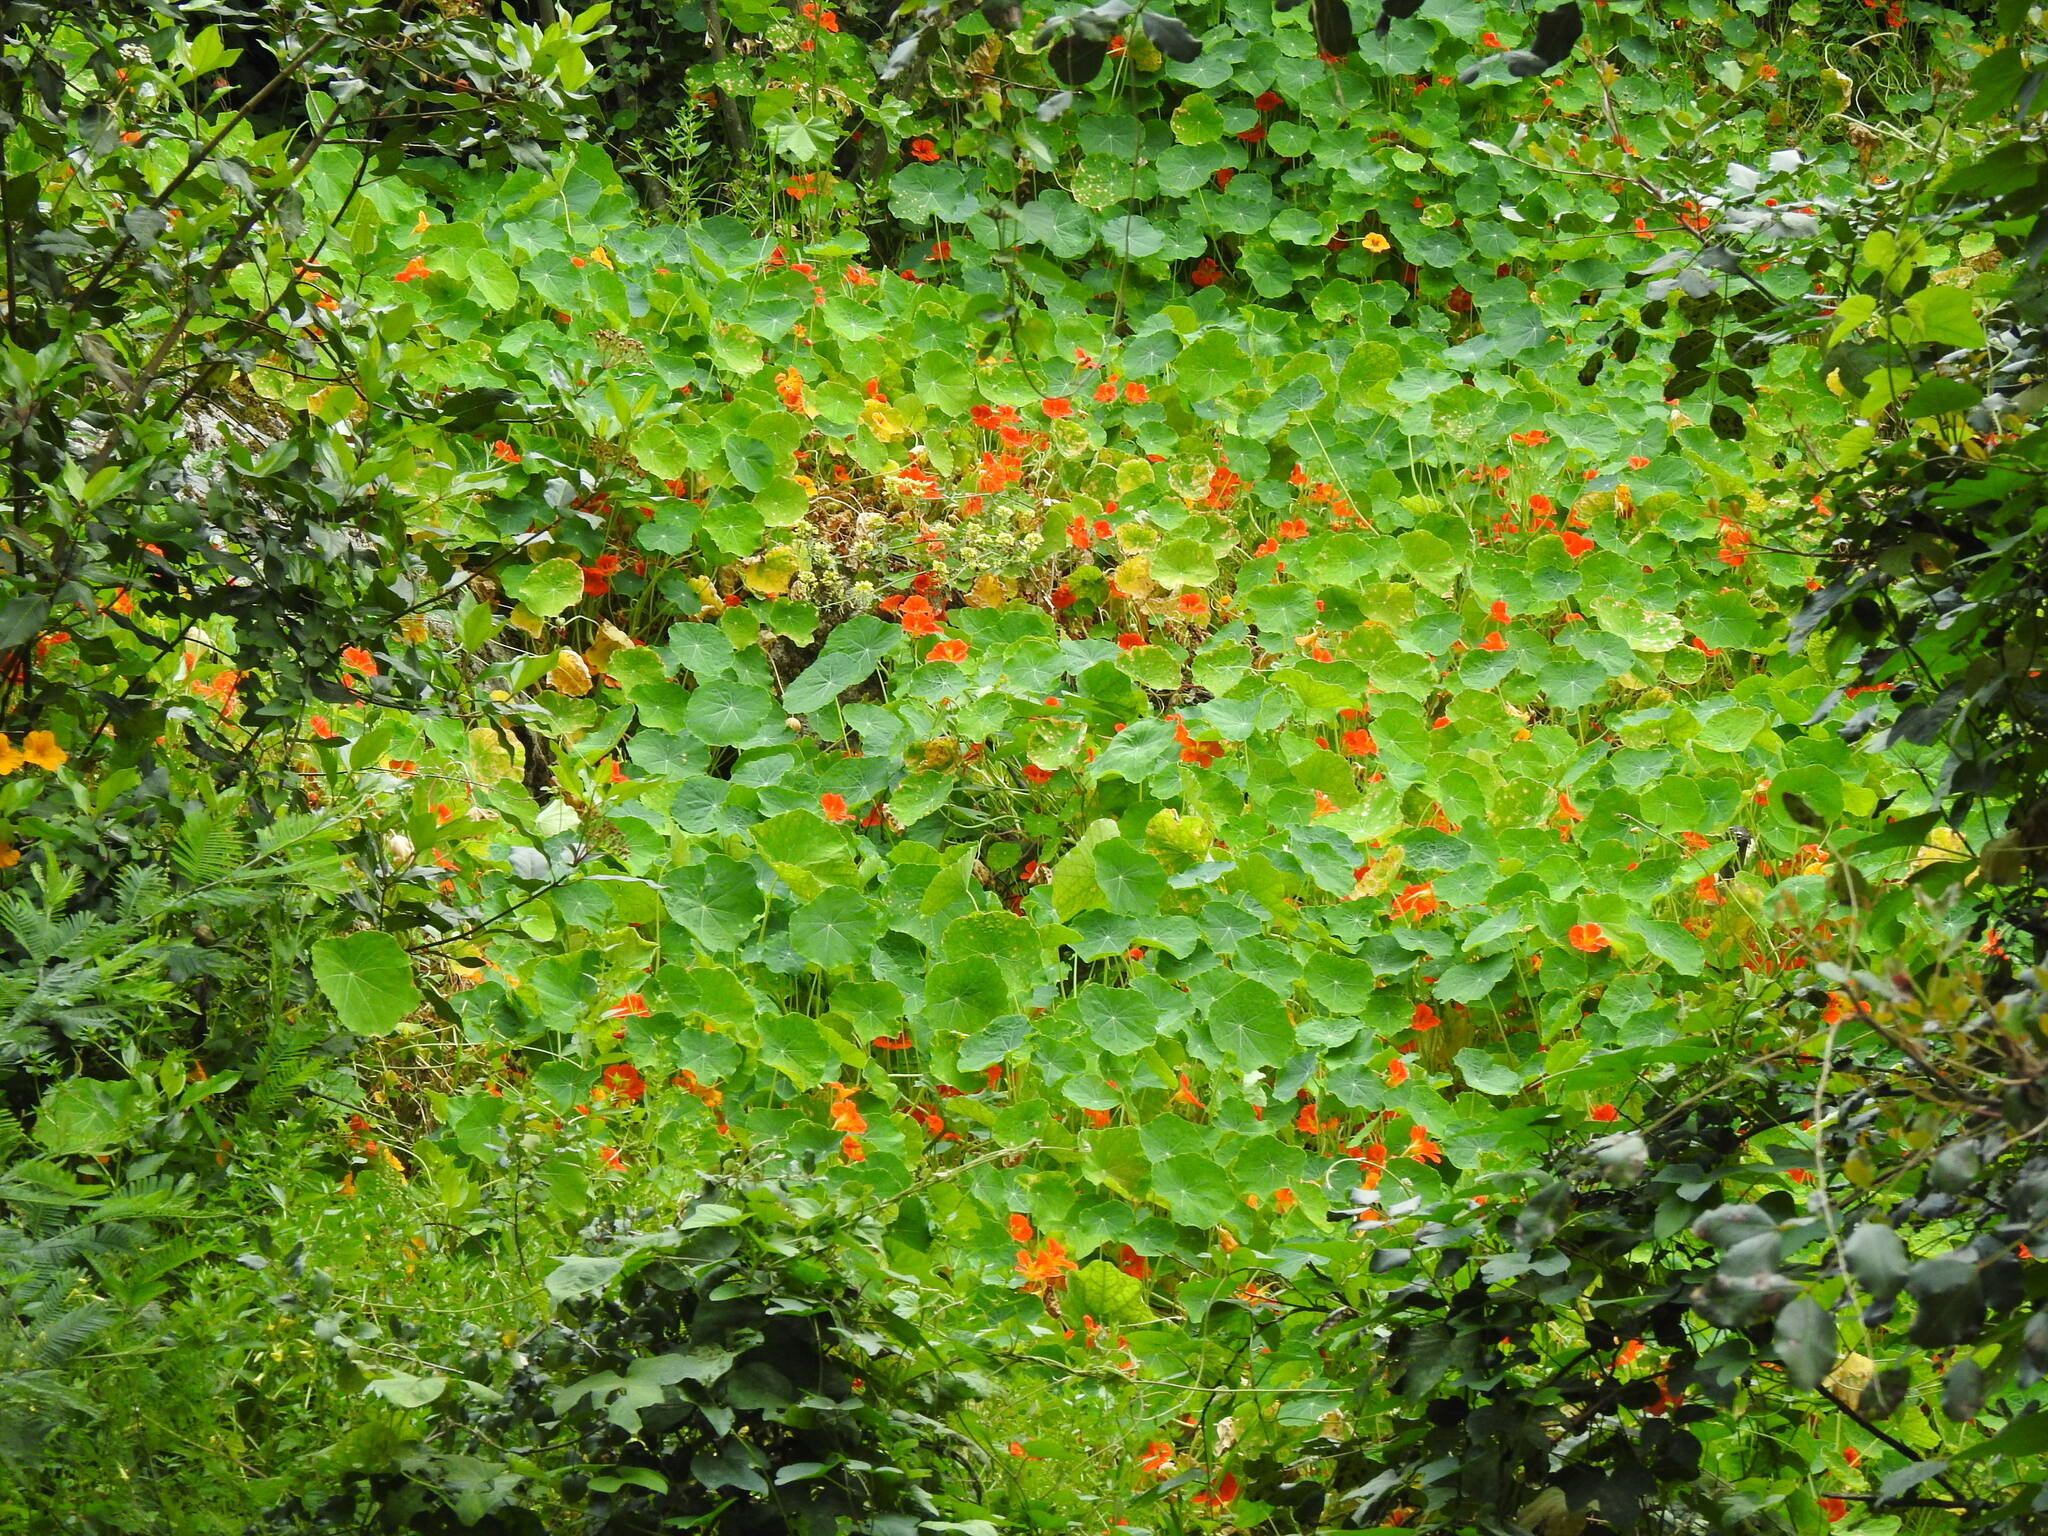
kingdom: Plantae
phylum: Tracheophyta
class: Magnoliopsida
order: Brassicales
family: Tropaeolaceae
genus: Tropaeolum
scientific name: Tropaeolum majus
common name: Nasturtium
